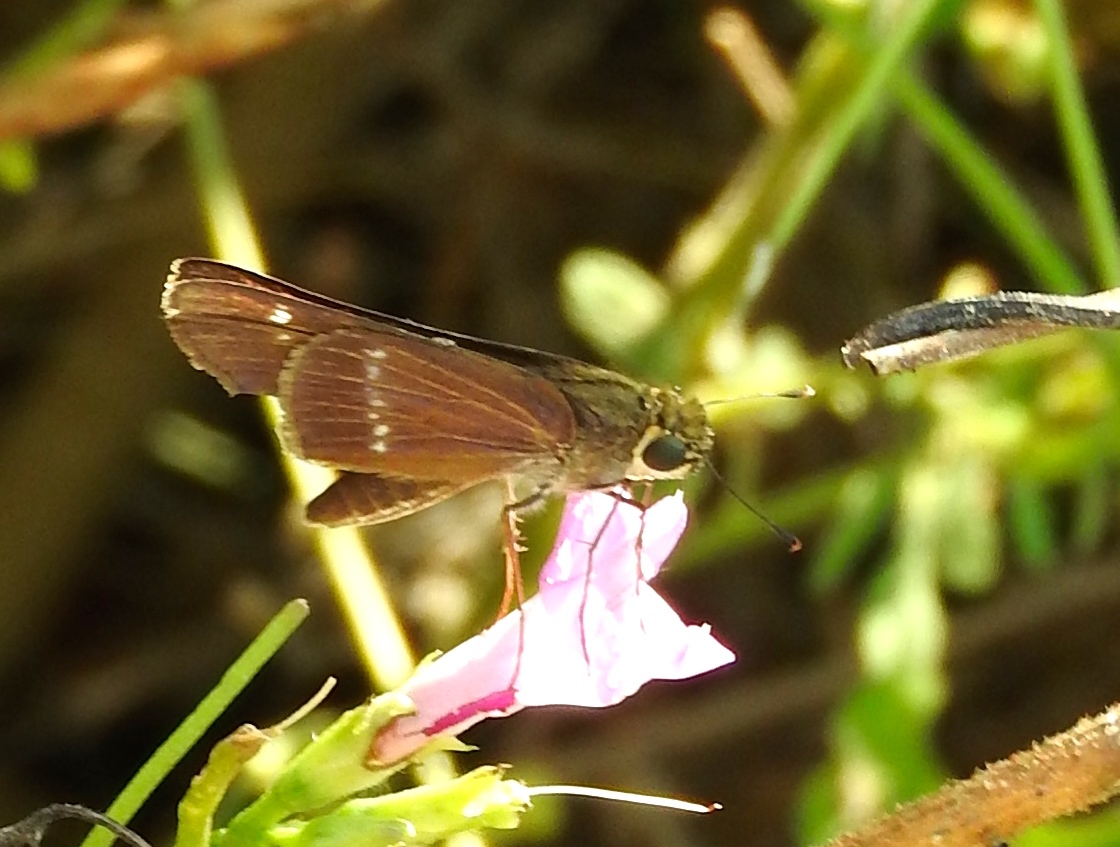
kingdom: Animalia
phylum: Arthropoda
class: Insecta
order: Lepidoptera
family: Hesperiidae
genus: Turesis
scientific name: Turesis lucas
